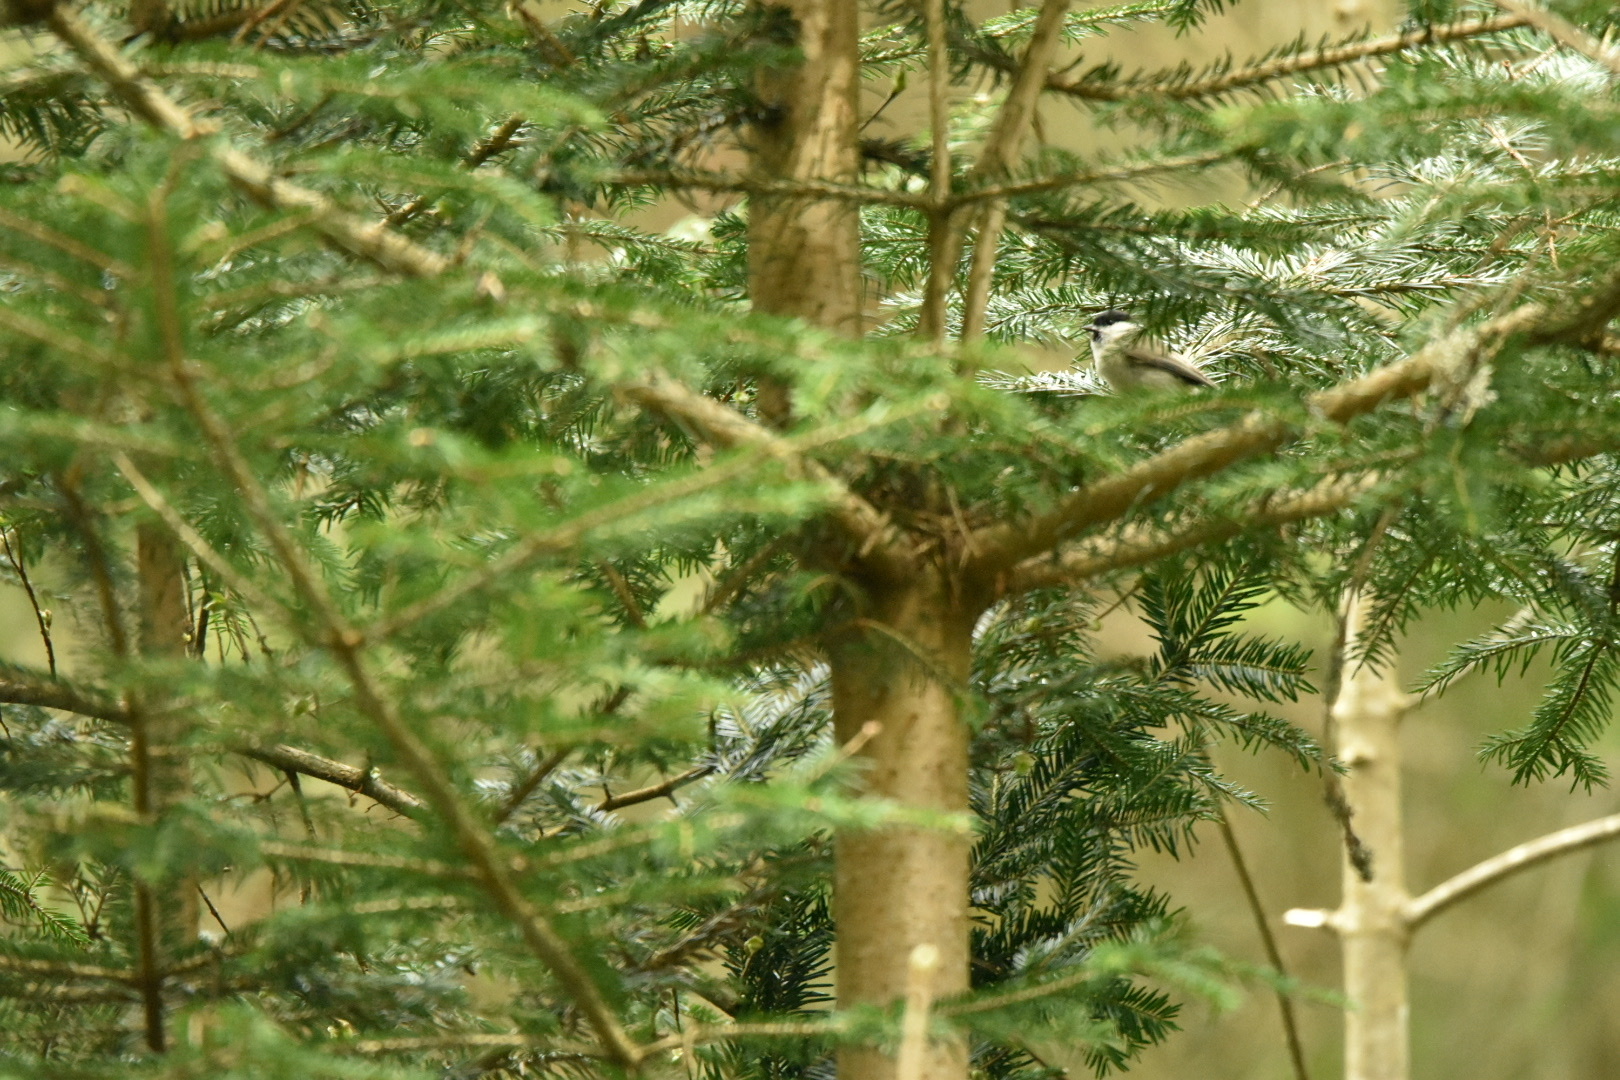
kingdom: Animalia
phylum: Chordata
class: Aves
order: Passeriformes
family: Paridae
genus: Poecile
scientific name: Poecile palustris
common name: Marsh tit
